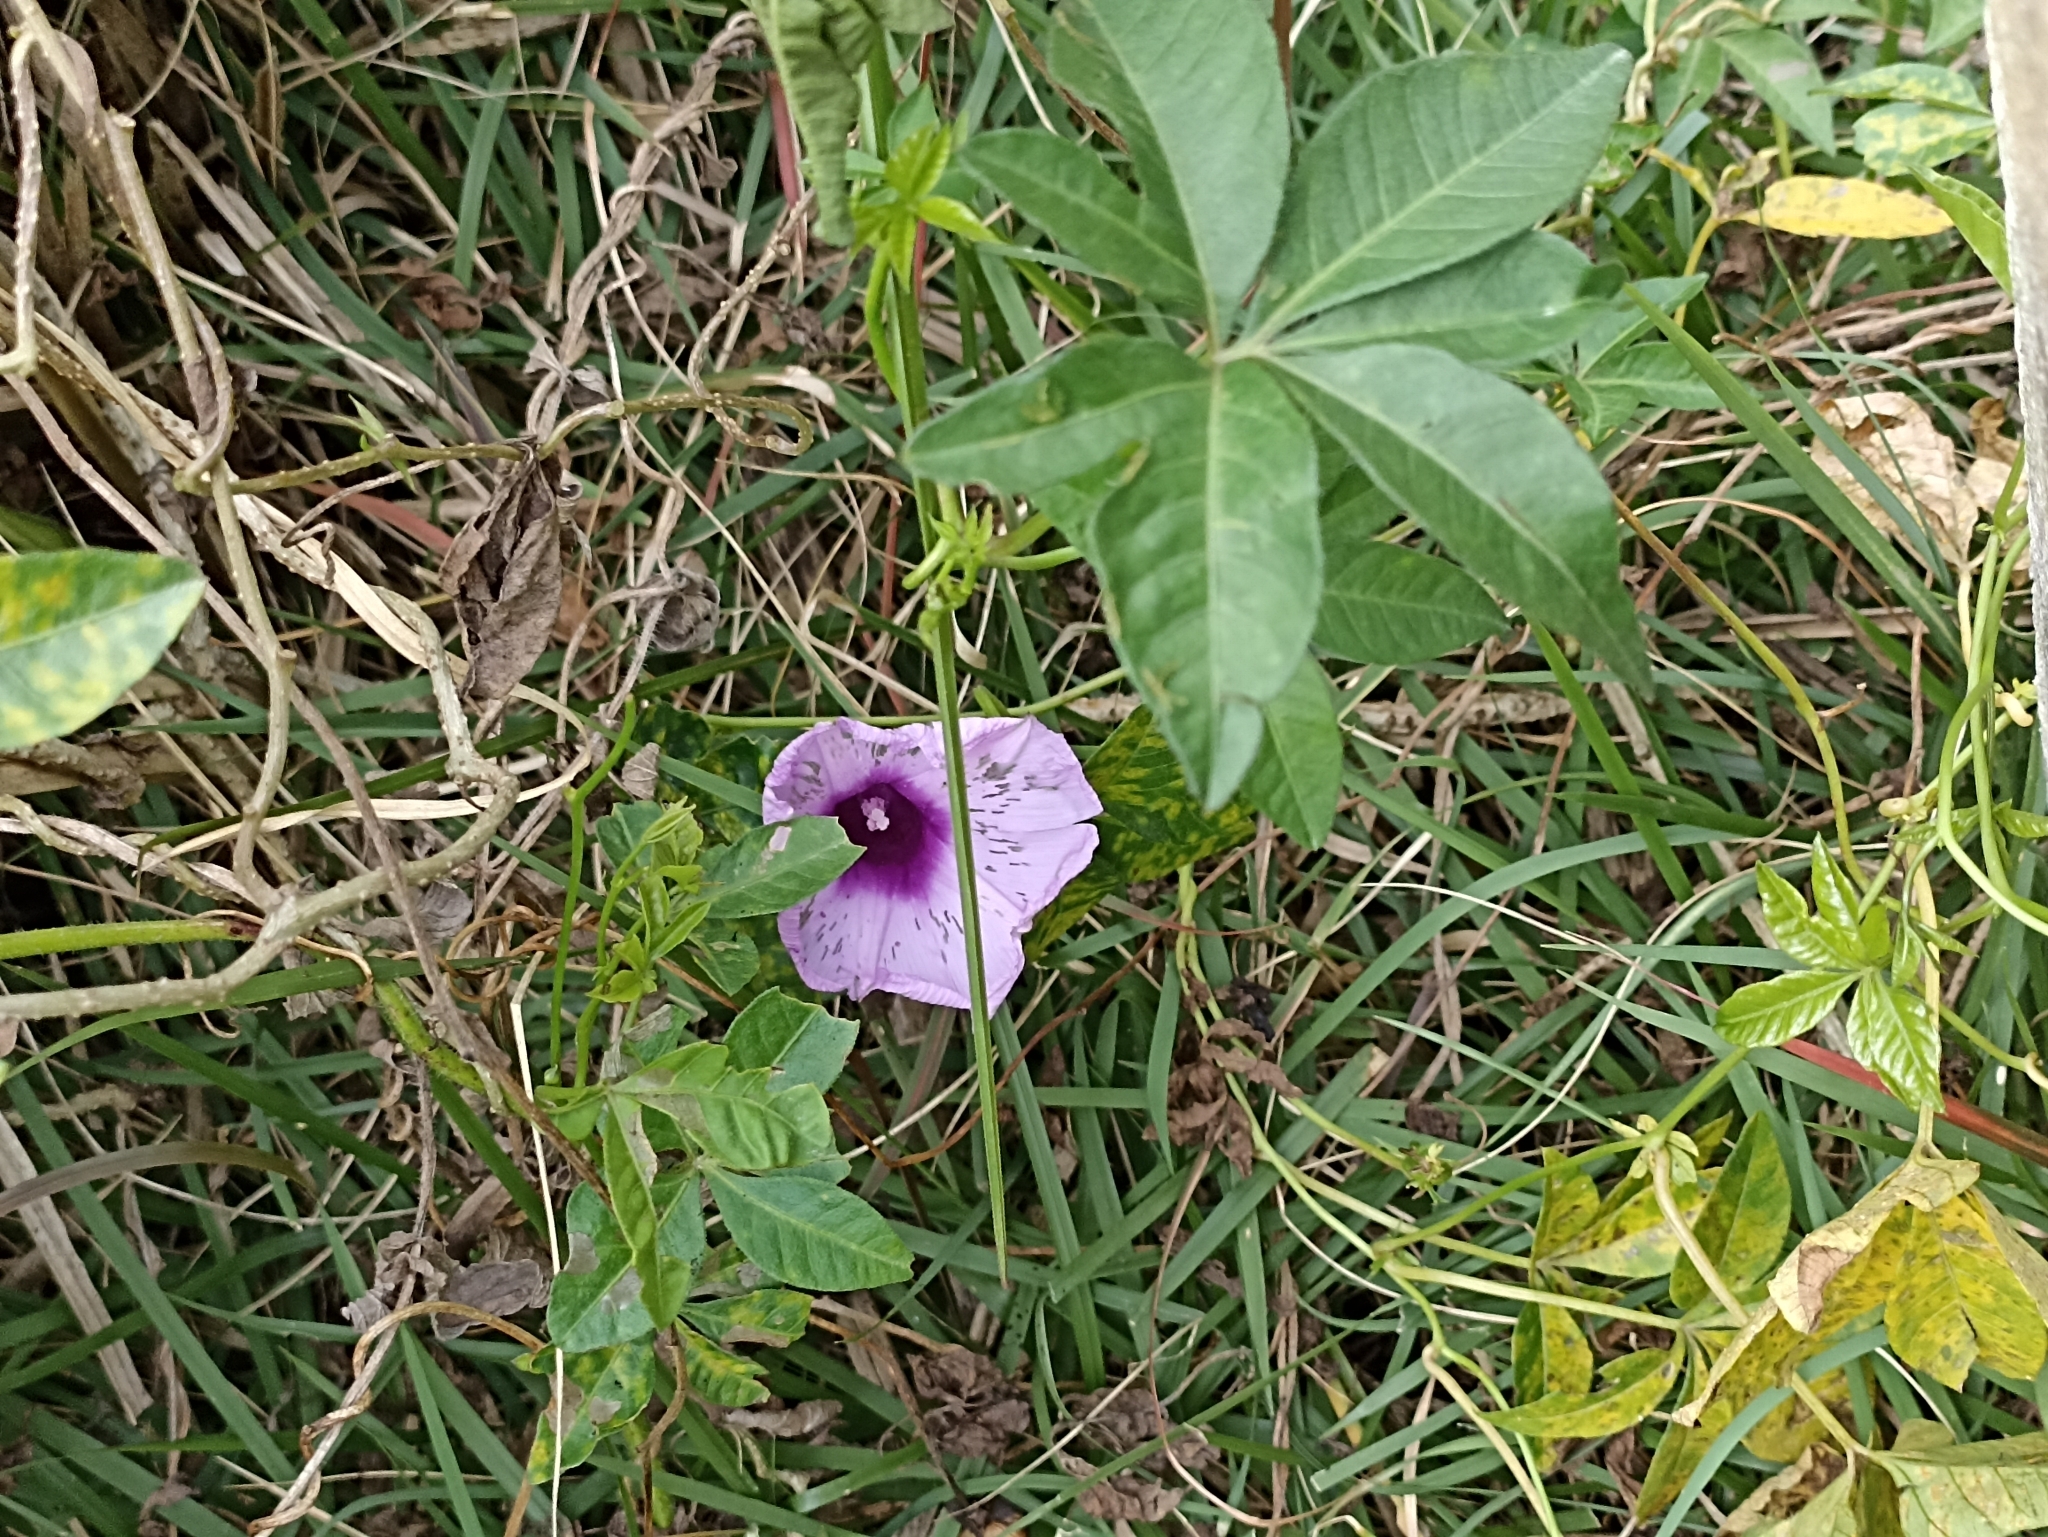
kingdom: Plantae
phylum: Tracheophyta
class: Magnoliopsida
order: Solanales
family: Convolvulaceae
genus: Ipomoea
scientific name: Ipomoea cairica
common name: Mile a minute vine
